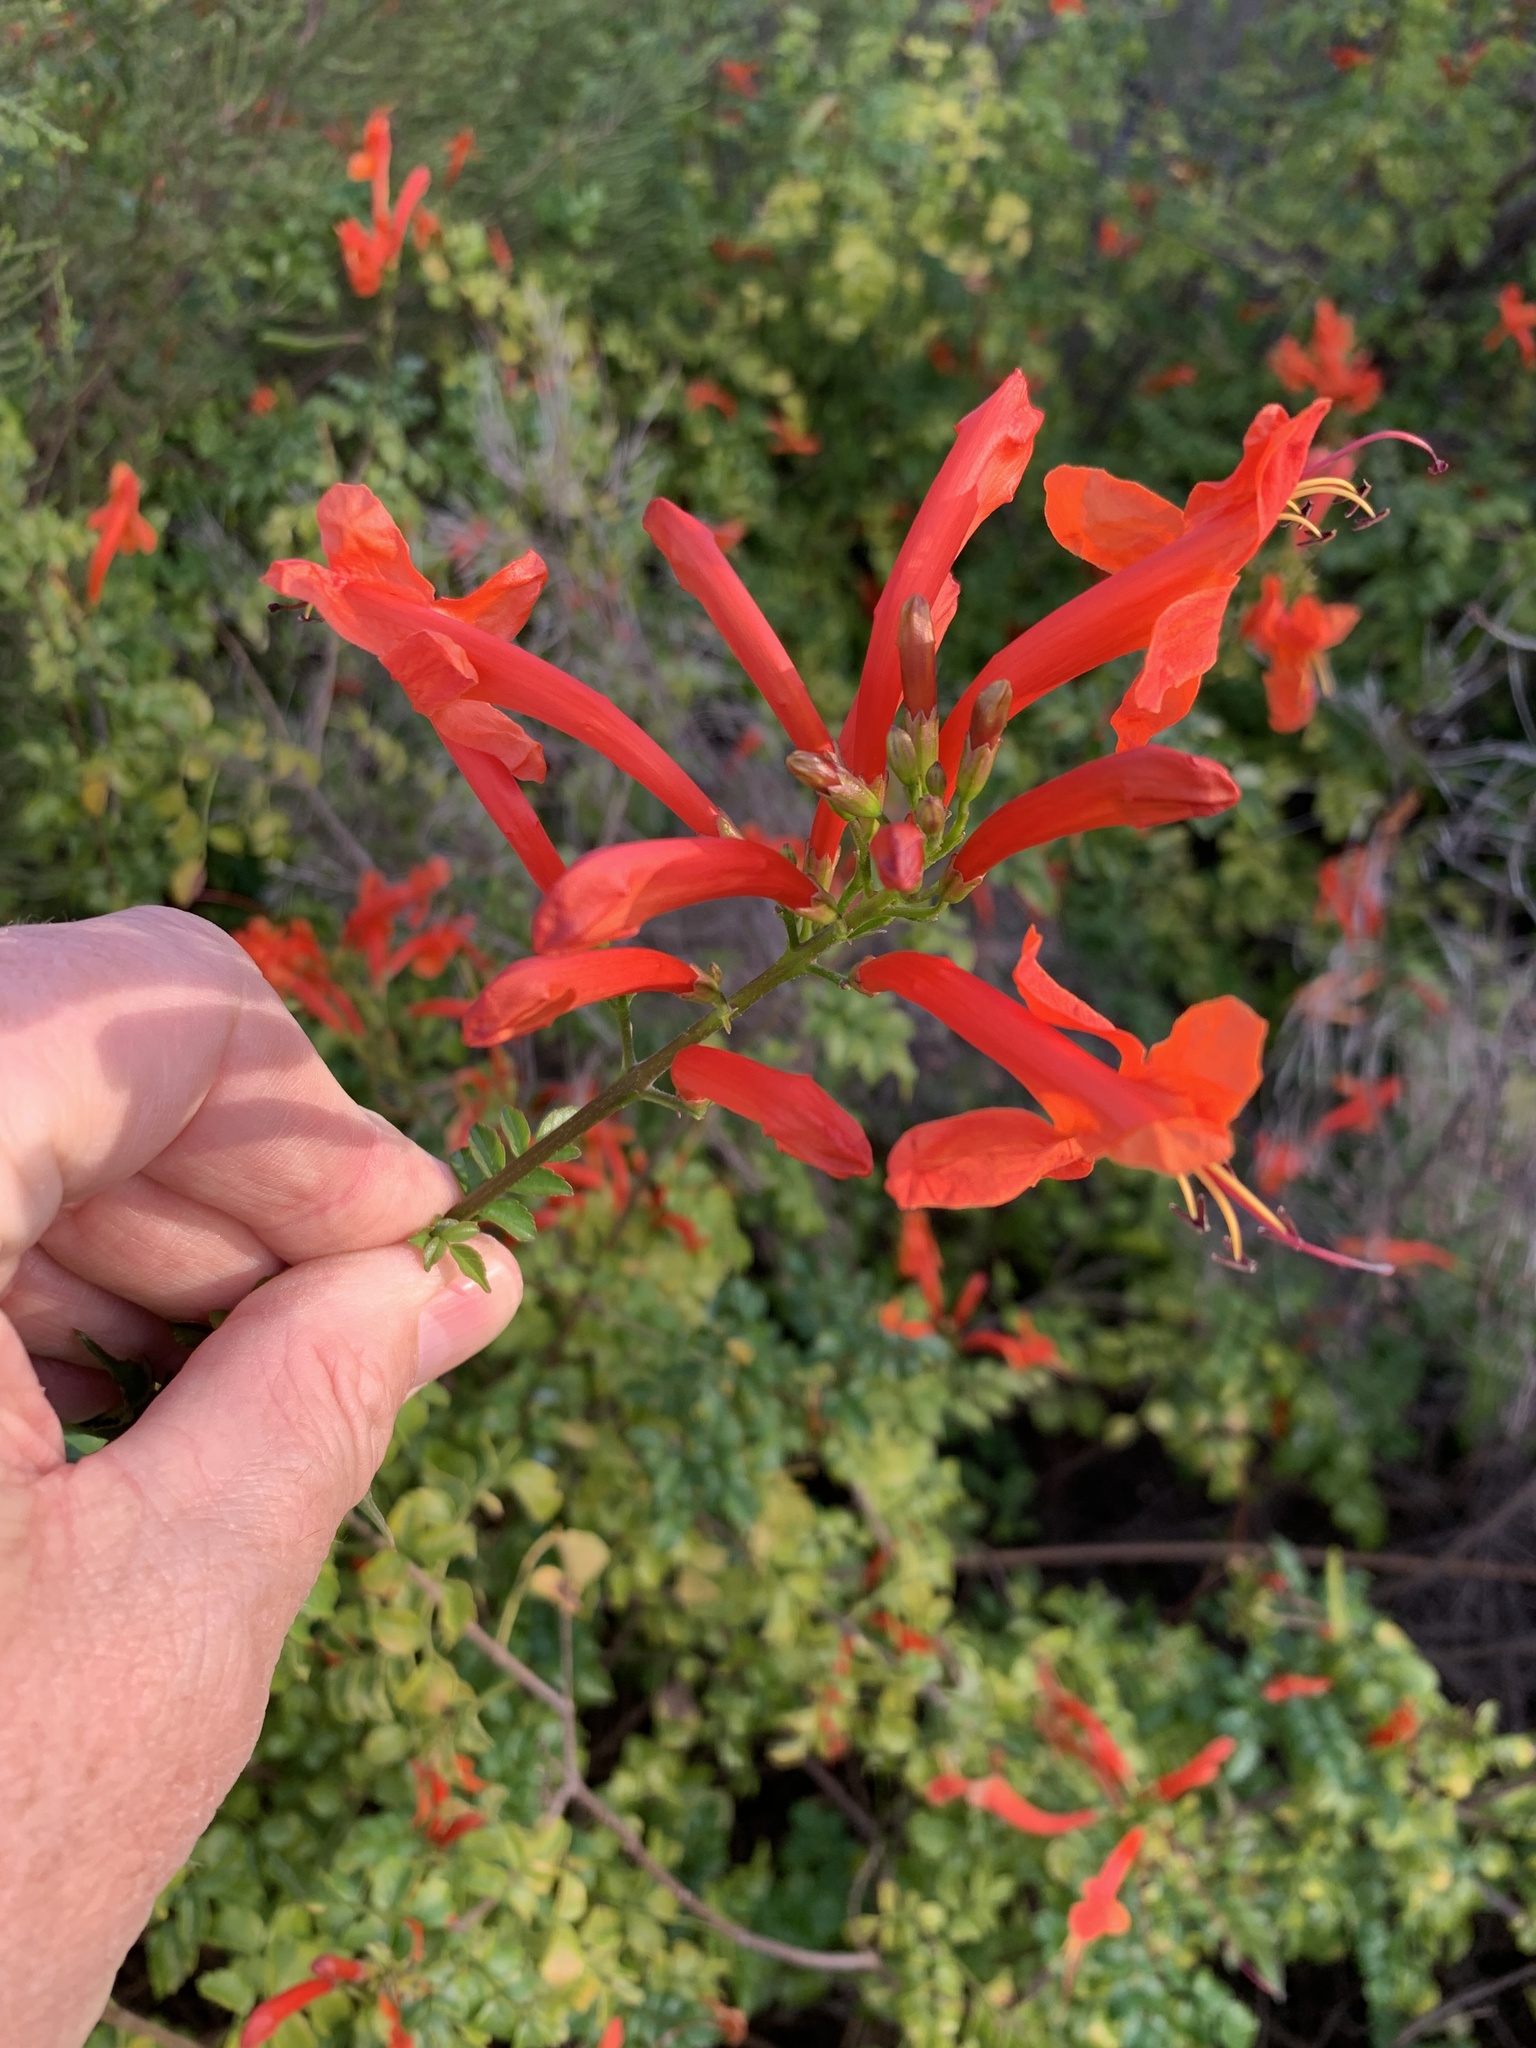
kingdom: Plantae
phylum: Tracheophyta
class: Magnoliopsida
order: Lamiales
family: Bignoniaceae
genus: Tecomaria
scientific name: Tecomaria capensis
